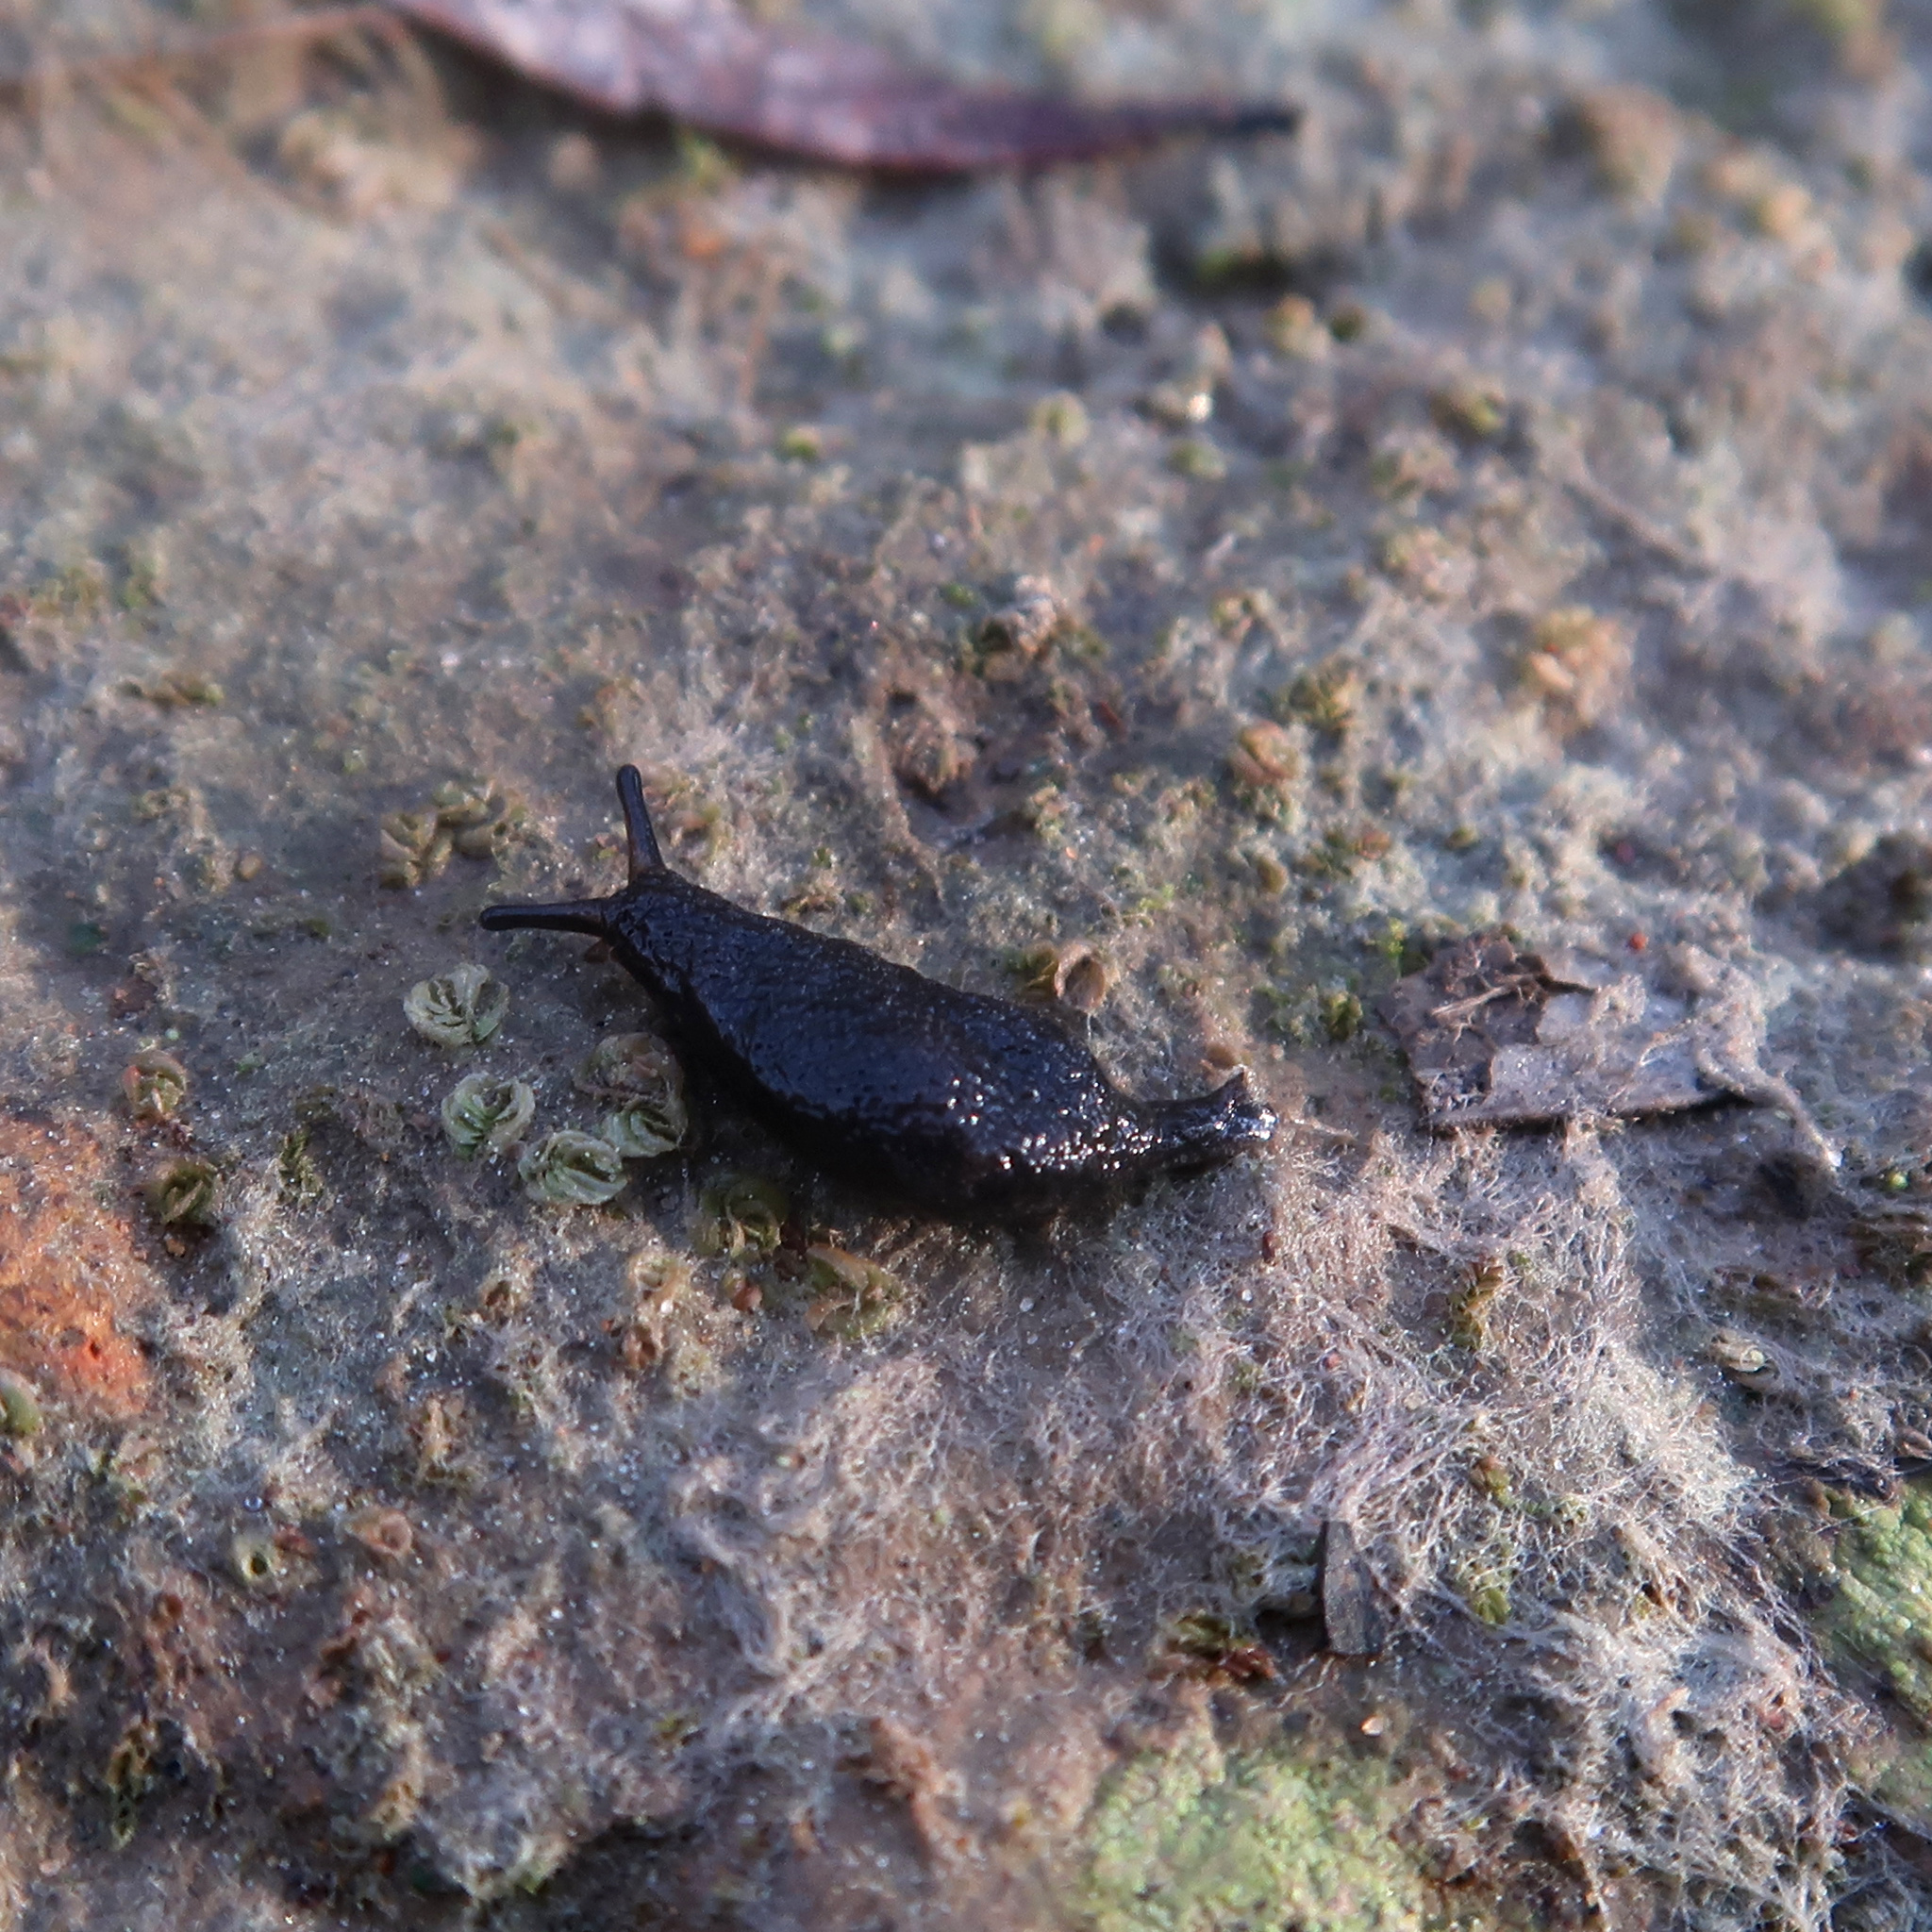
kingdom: Animalia
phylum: Mollusca
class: Gastropoda
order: Stylommatophora
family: Cystopeltidae
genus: Cystopelta
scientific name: Cystopelta
